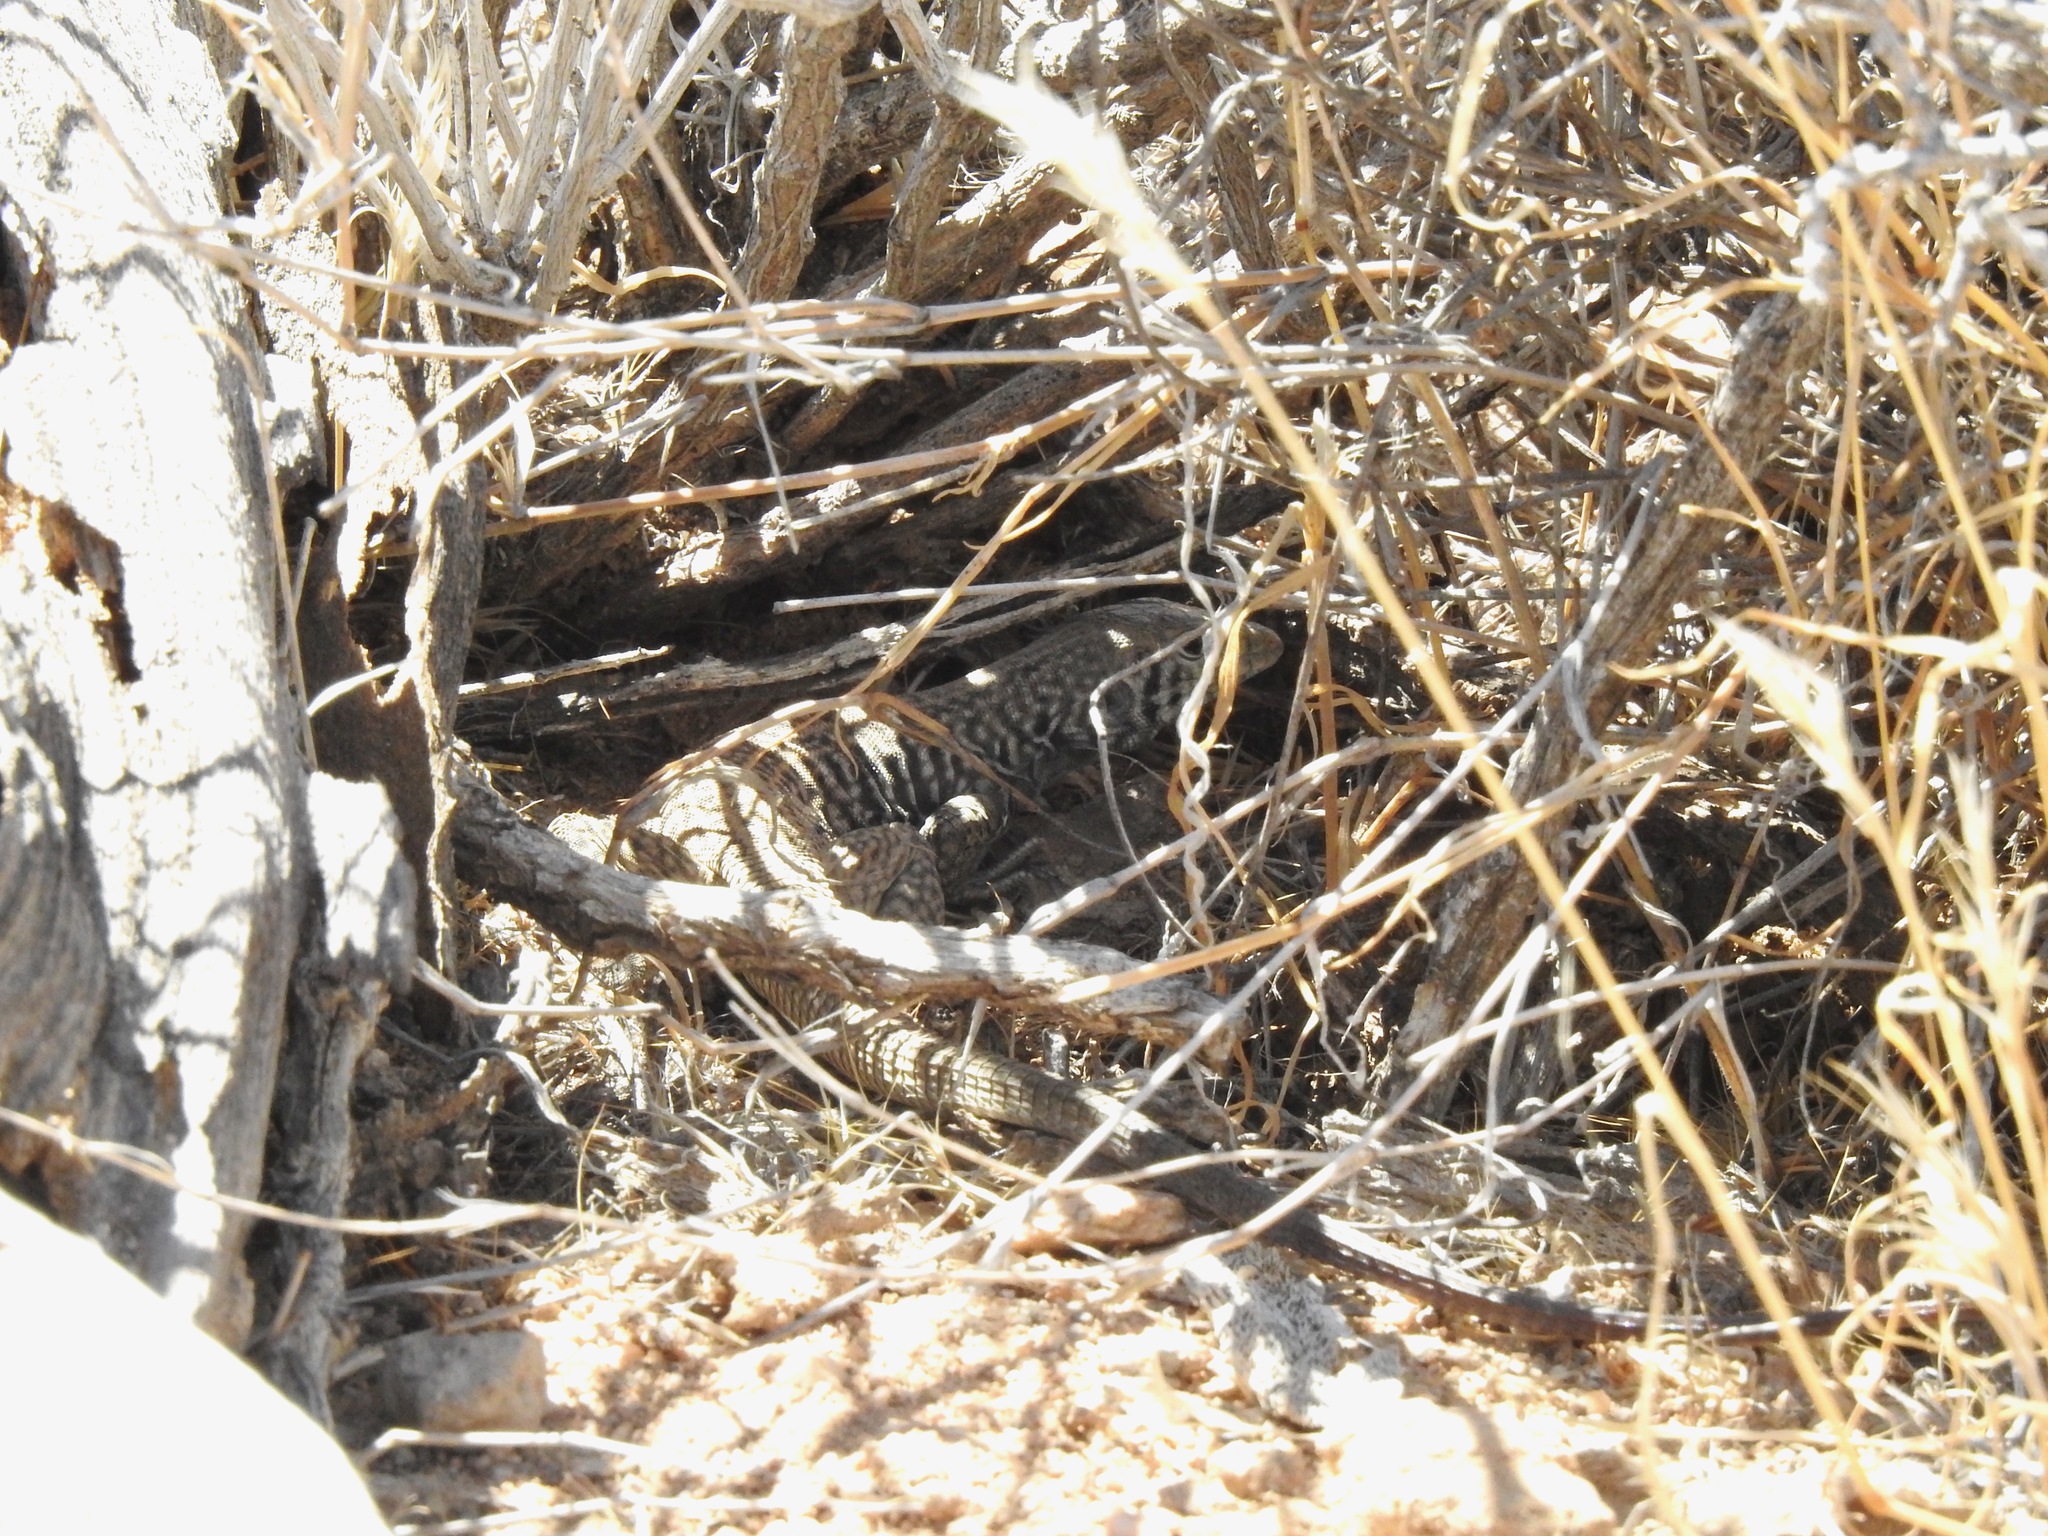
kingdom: Animalia
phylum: Chordata
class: Squamata
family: Teiidae
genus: Aspidoscelis
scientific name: Aspidoscelis tigris
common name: Tiger whiptail
